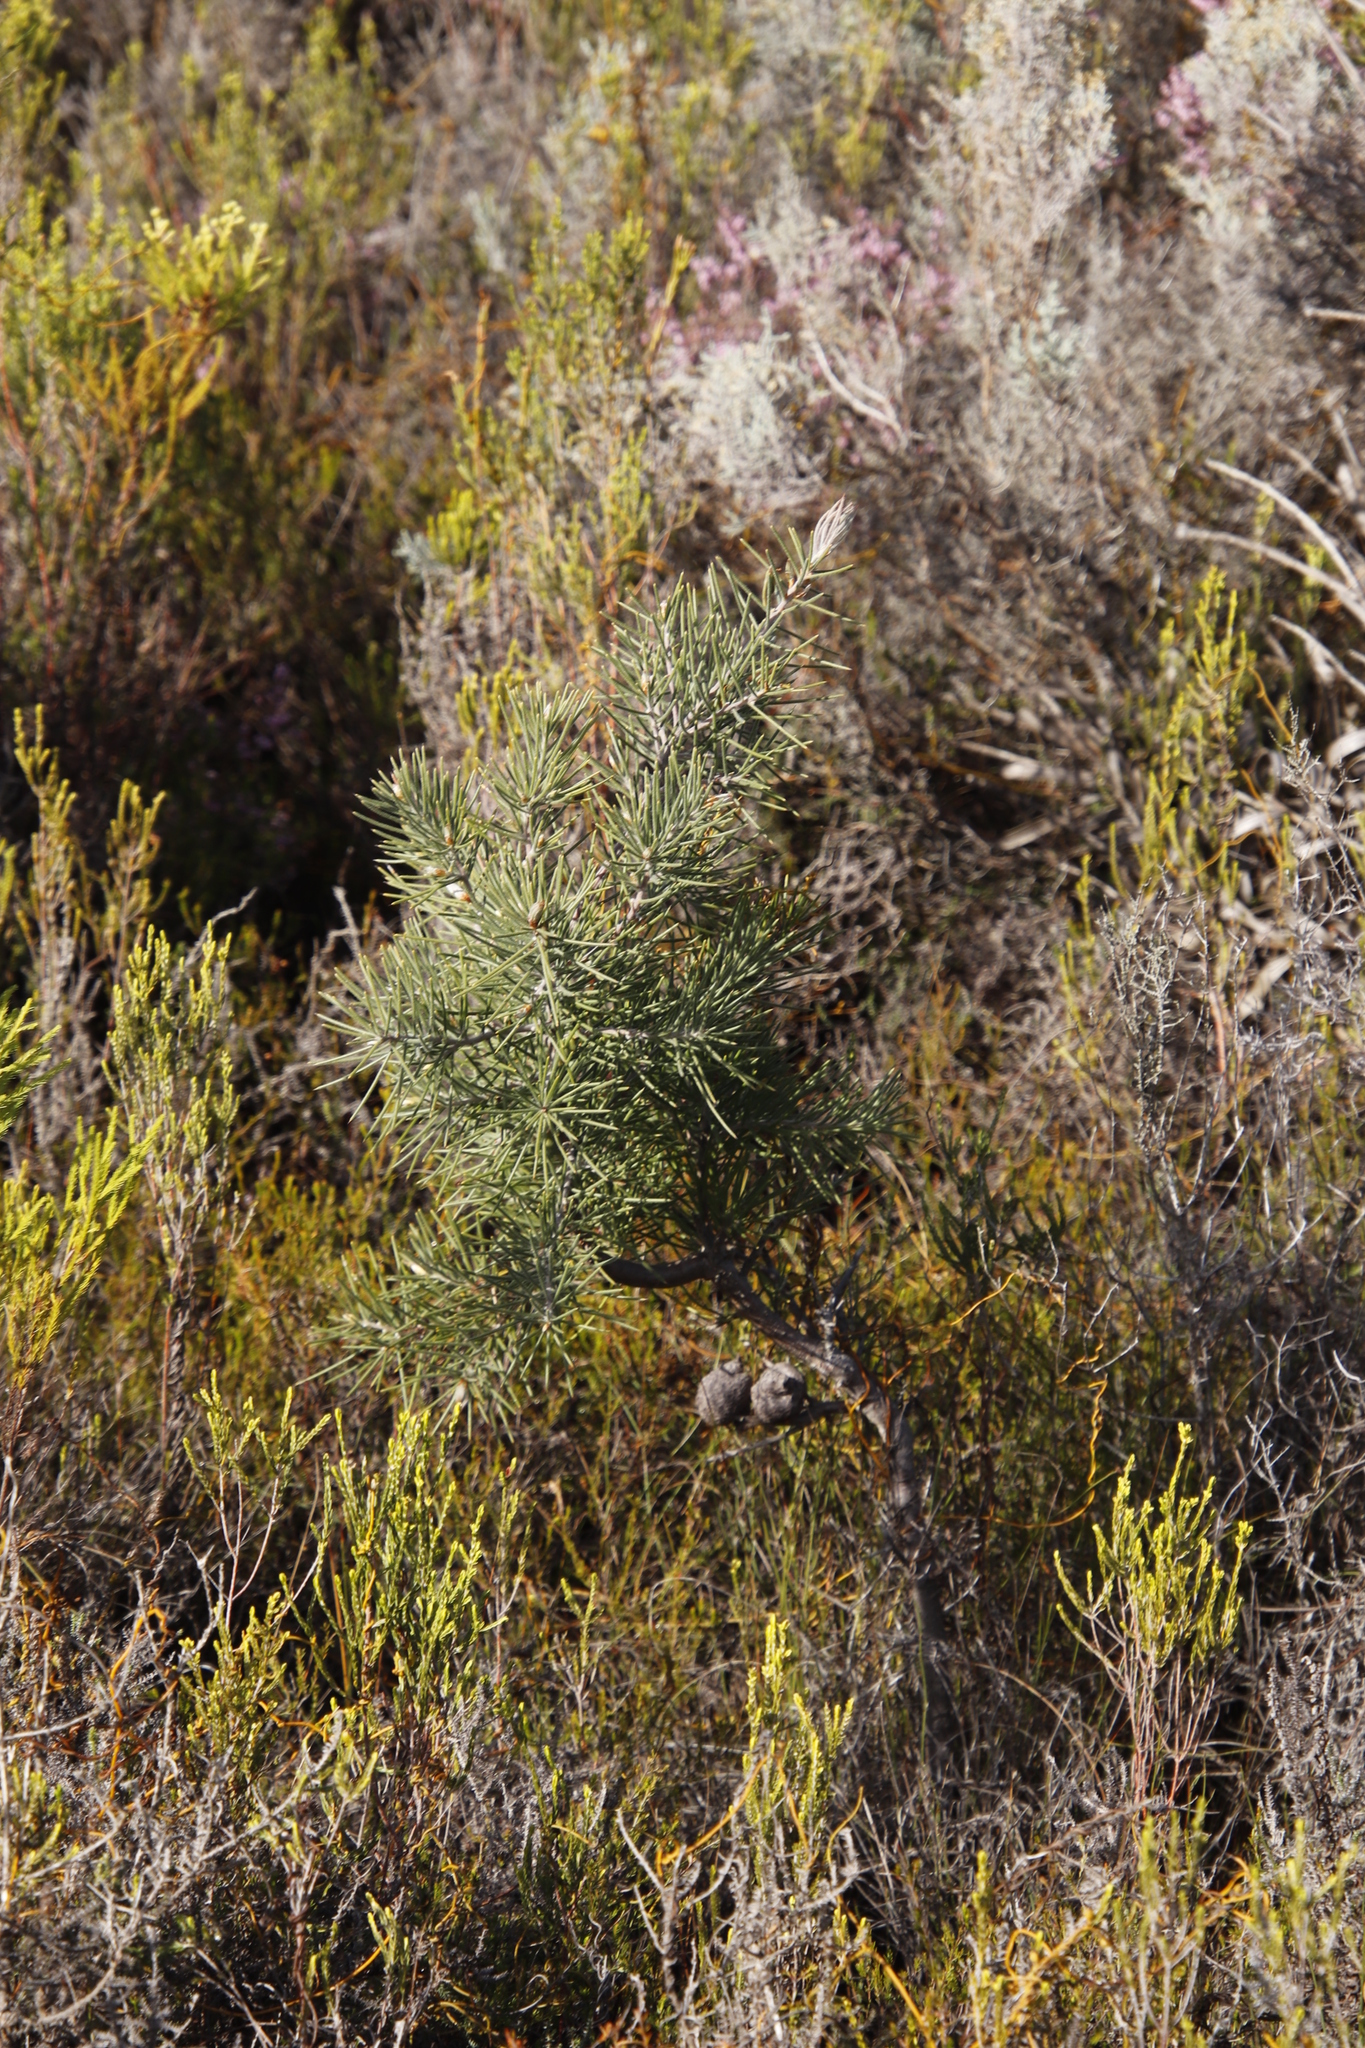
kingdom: Plantae
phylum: Tracheophyta
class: Magnoliopsida
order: Proteales
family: Proteaceae
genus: Hakea
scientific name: Hakea gibbosa
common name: Rock hakea
